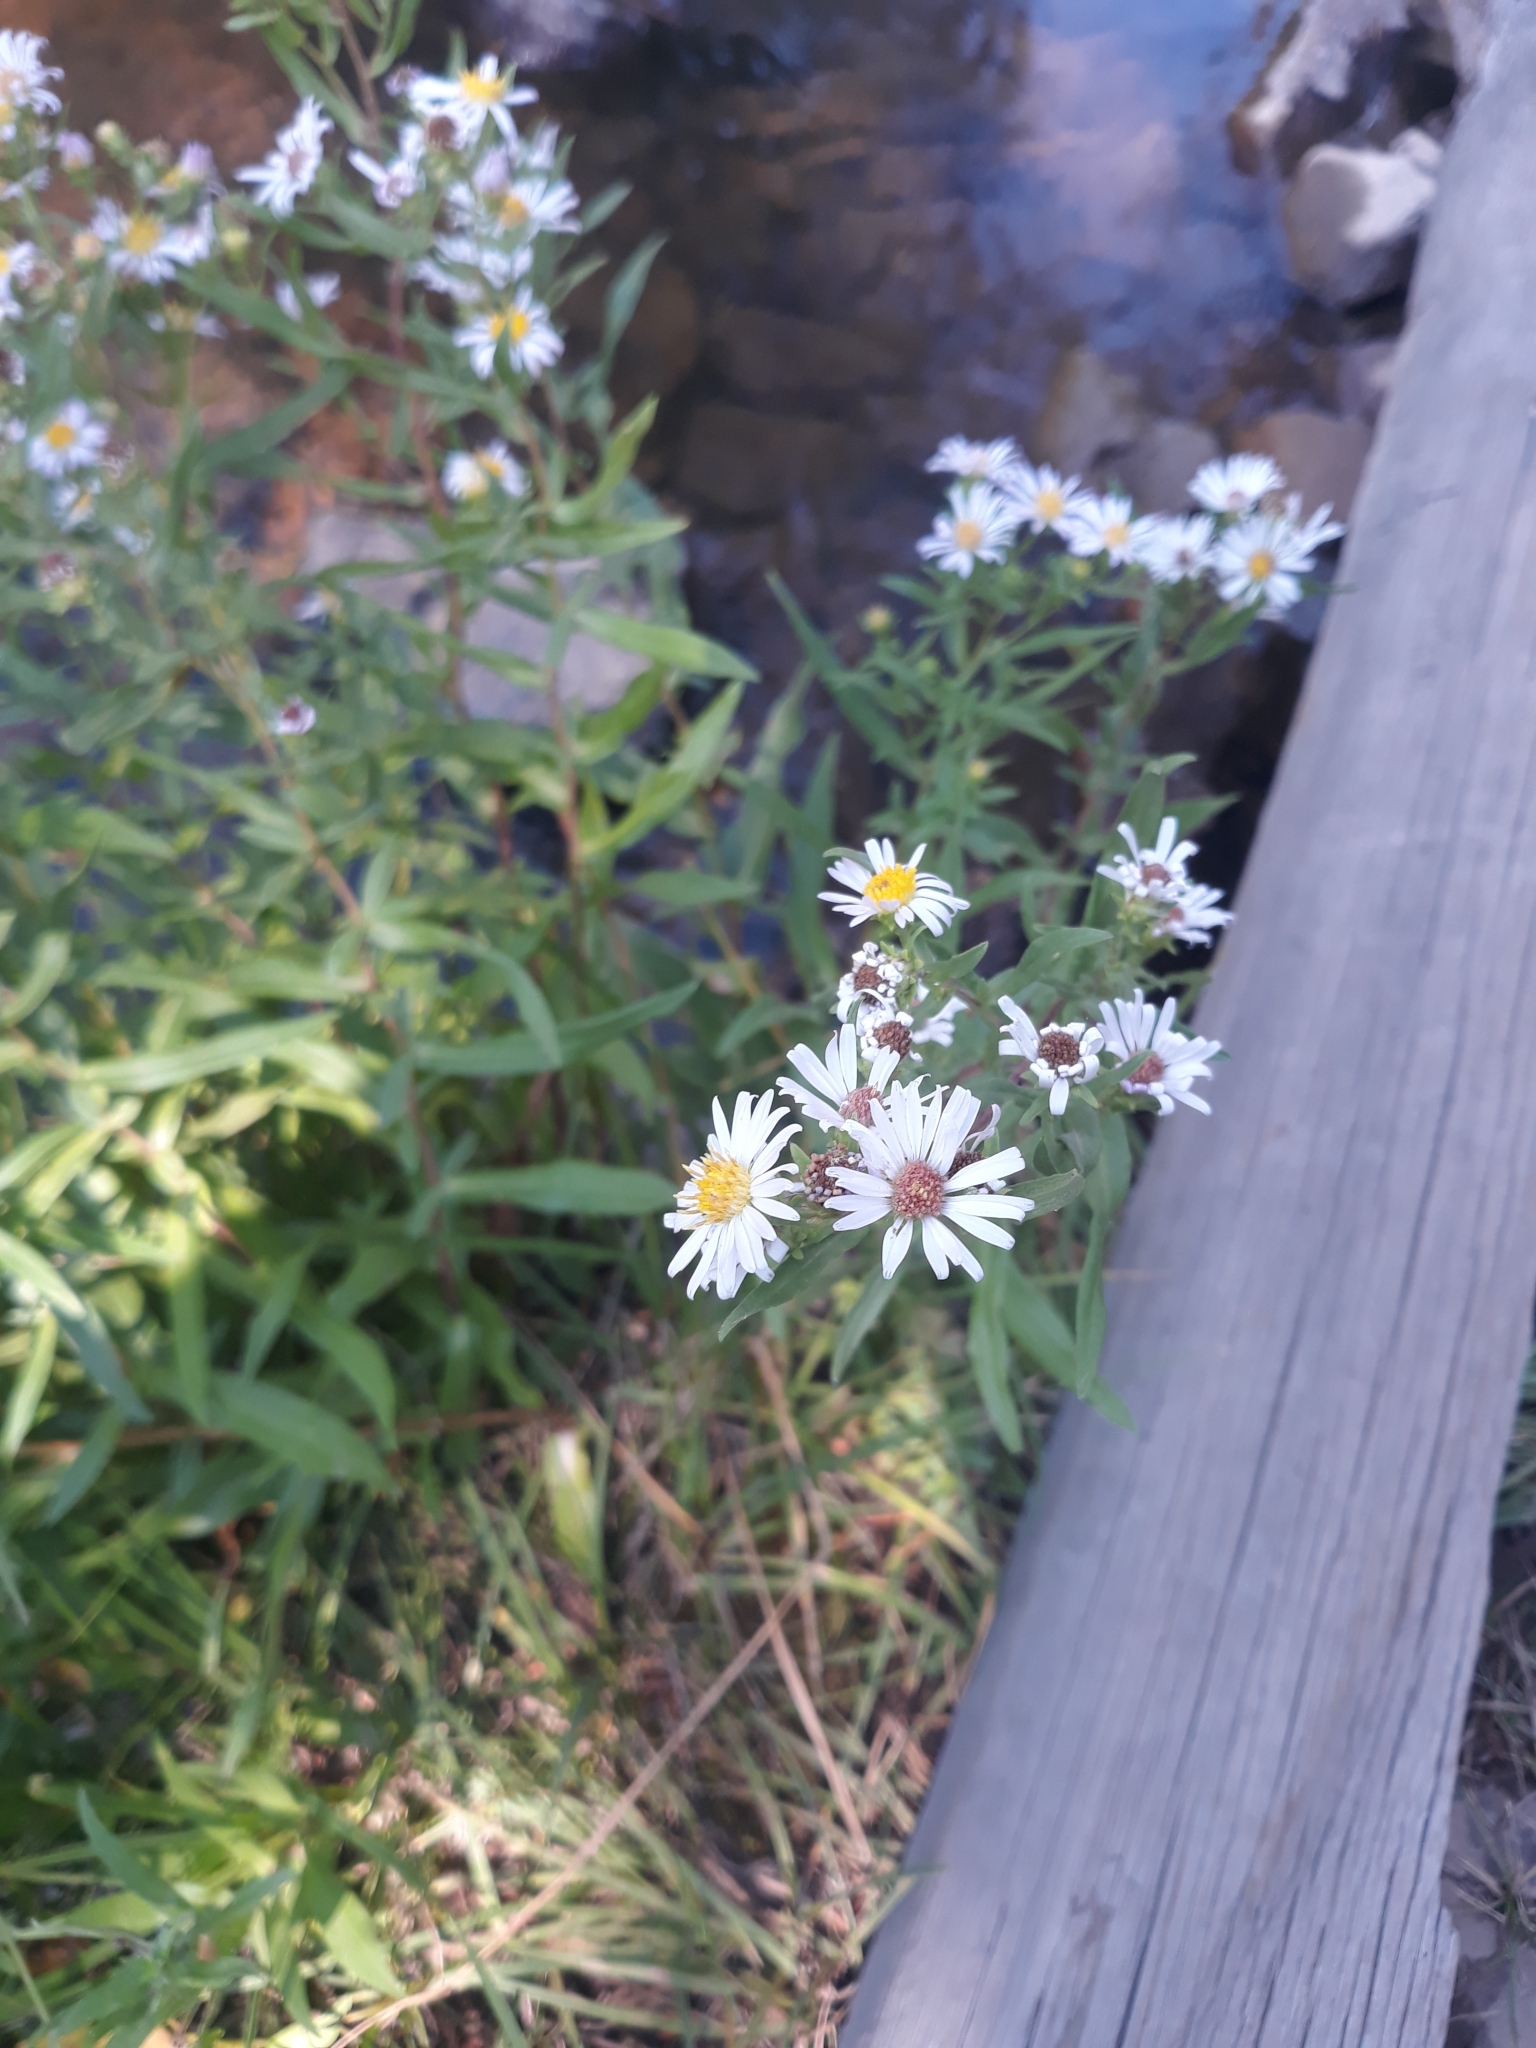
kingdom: Plantae
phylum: Tracheophyta
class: Magnoliopsida
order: Asterales
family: Asteraceae
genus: Symphyotrichum
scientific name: Symphyotrichum bracteolatum
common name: Eaton's aster
